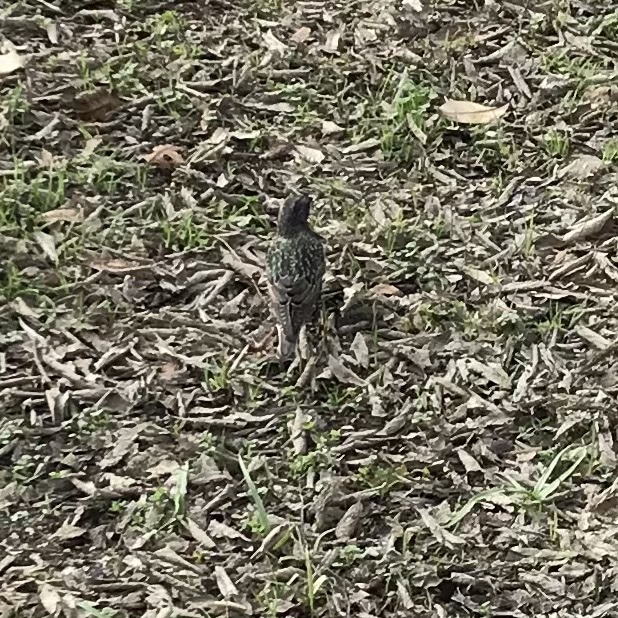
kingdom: Animalia
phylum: Chordata
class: Aves
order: Passeriformes
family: Sturnidae
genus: Sturnus
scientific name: Sturnus vulgaris
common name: Common starling
